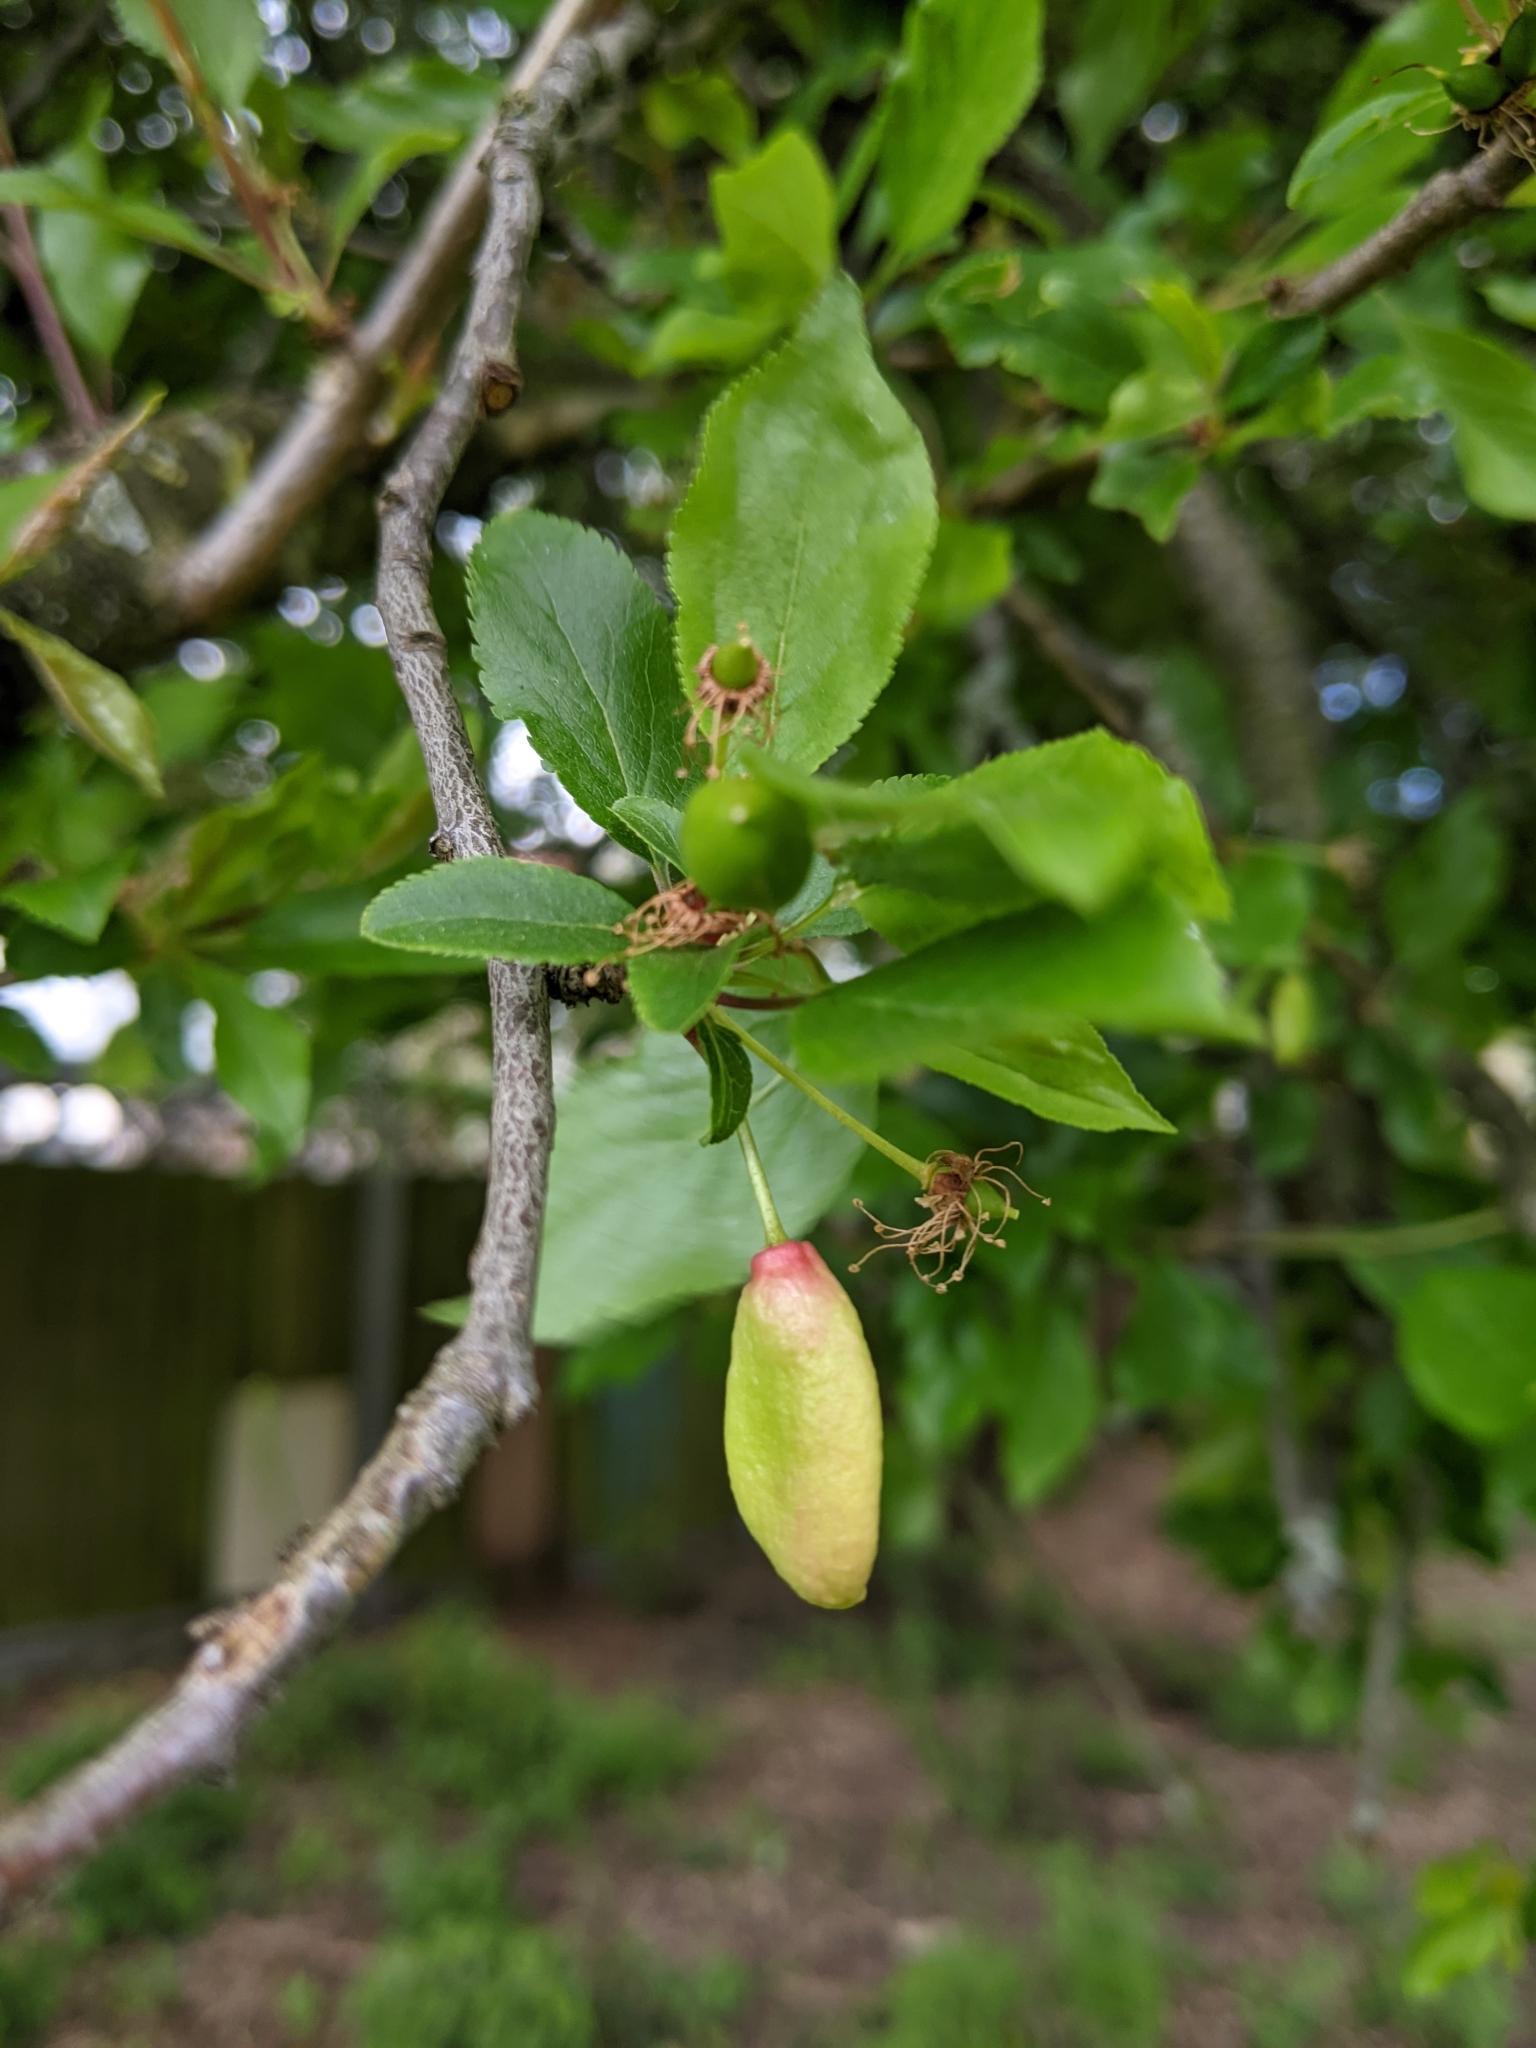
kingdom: Fungi
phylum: Ascomycota
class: Taphrinomycetes
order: Taphrinales
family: Taphrinaceae
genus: Taphrina
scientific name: Taphrina pruni
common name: Pocket plum
